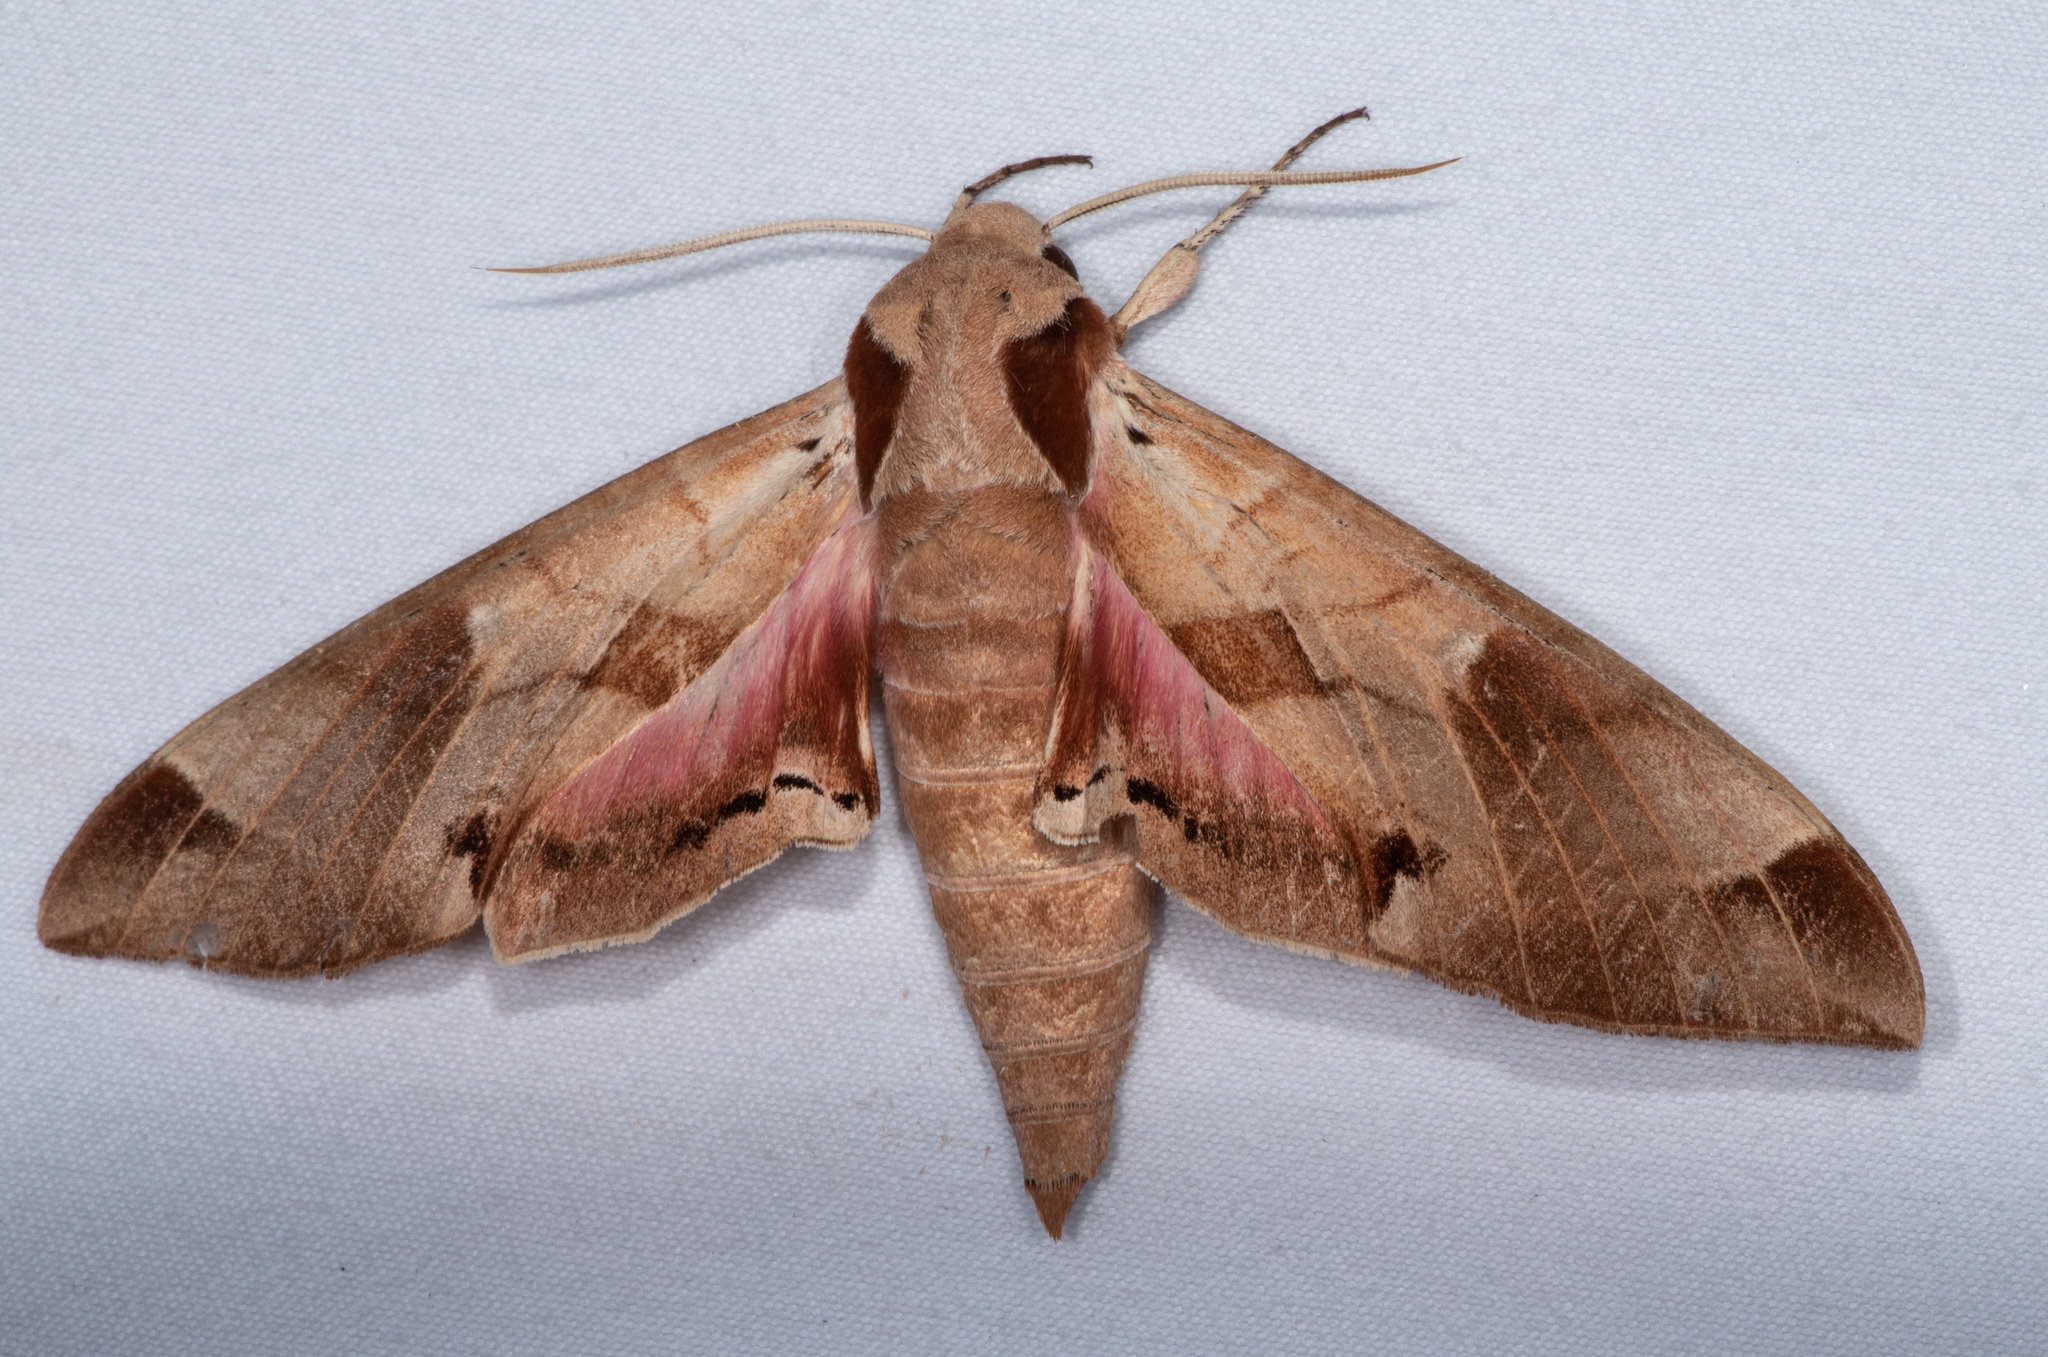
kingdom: Animalia
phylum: Arthropoda
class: Insecta
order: Lepidoptera
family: Sphingidae
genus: Eumorpha
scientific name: Eumorpha achemon
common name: Achemon sphinx
